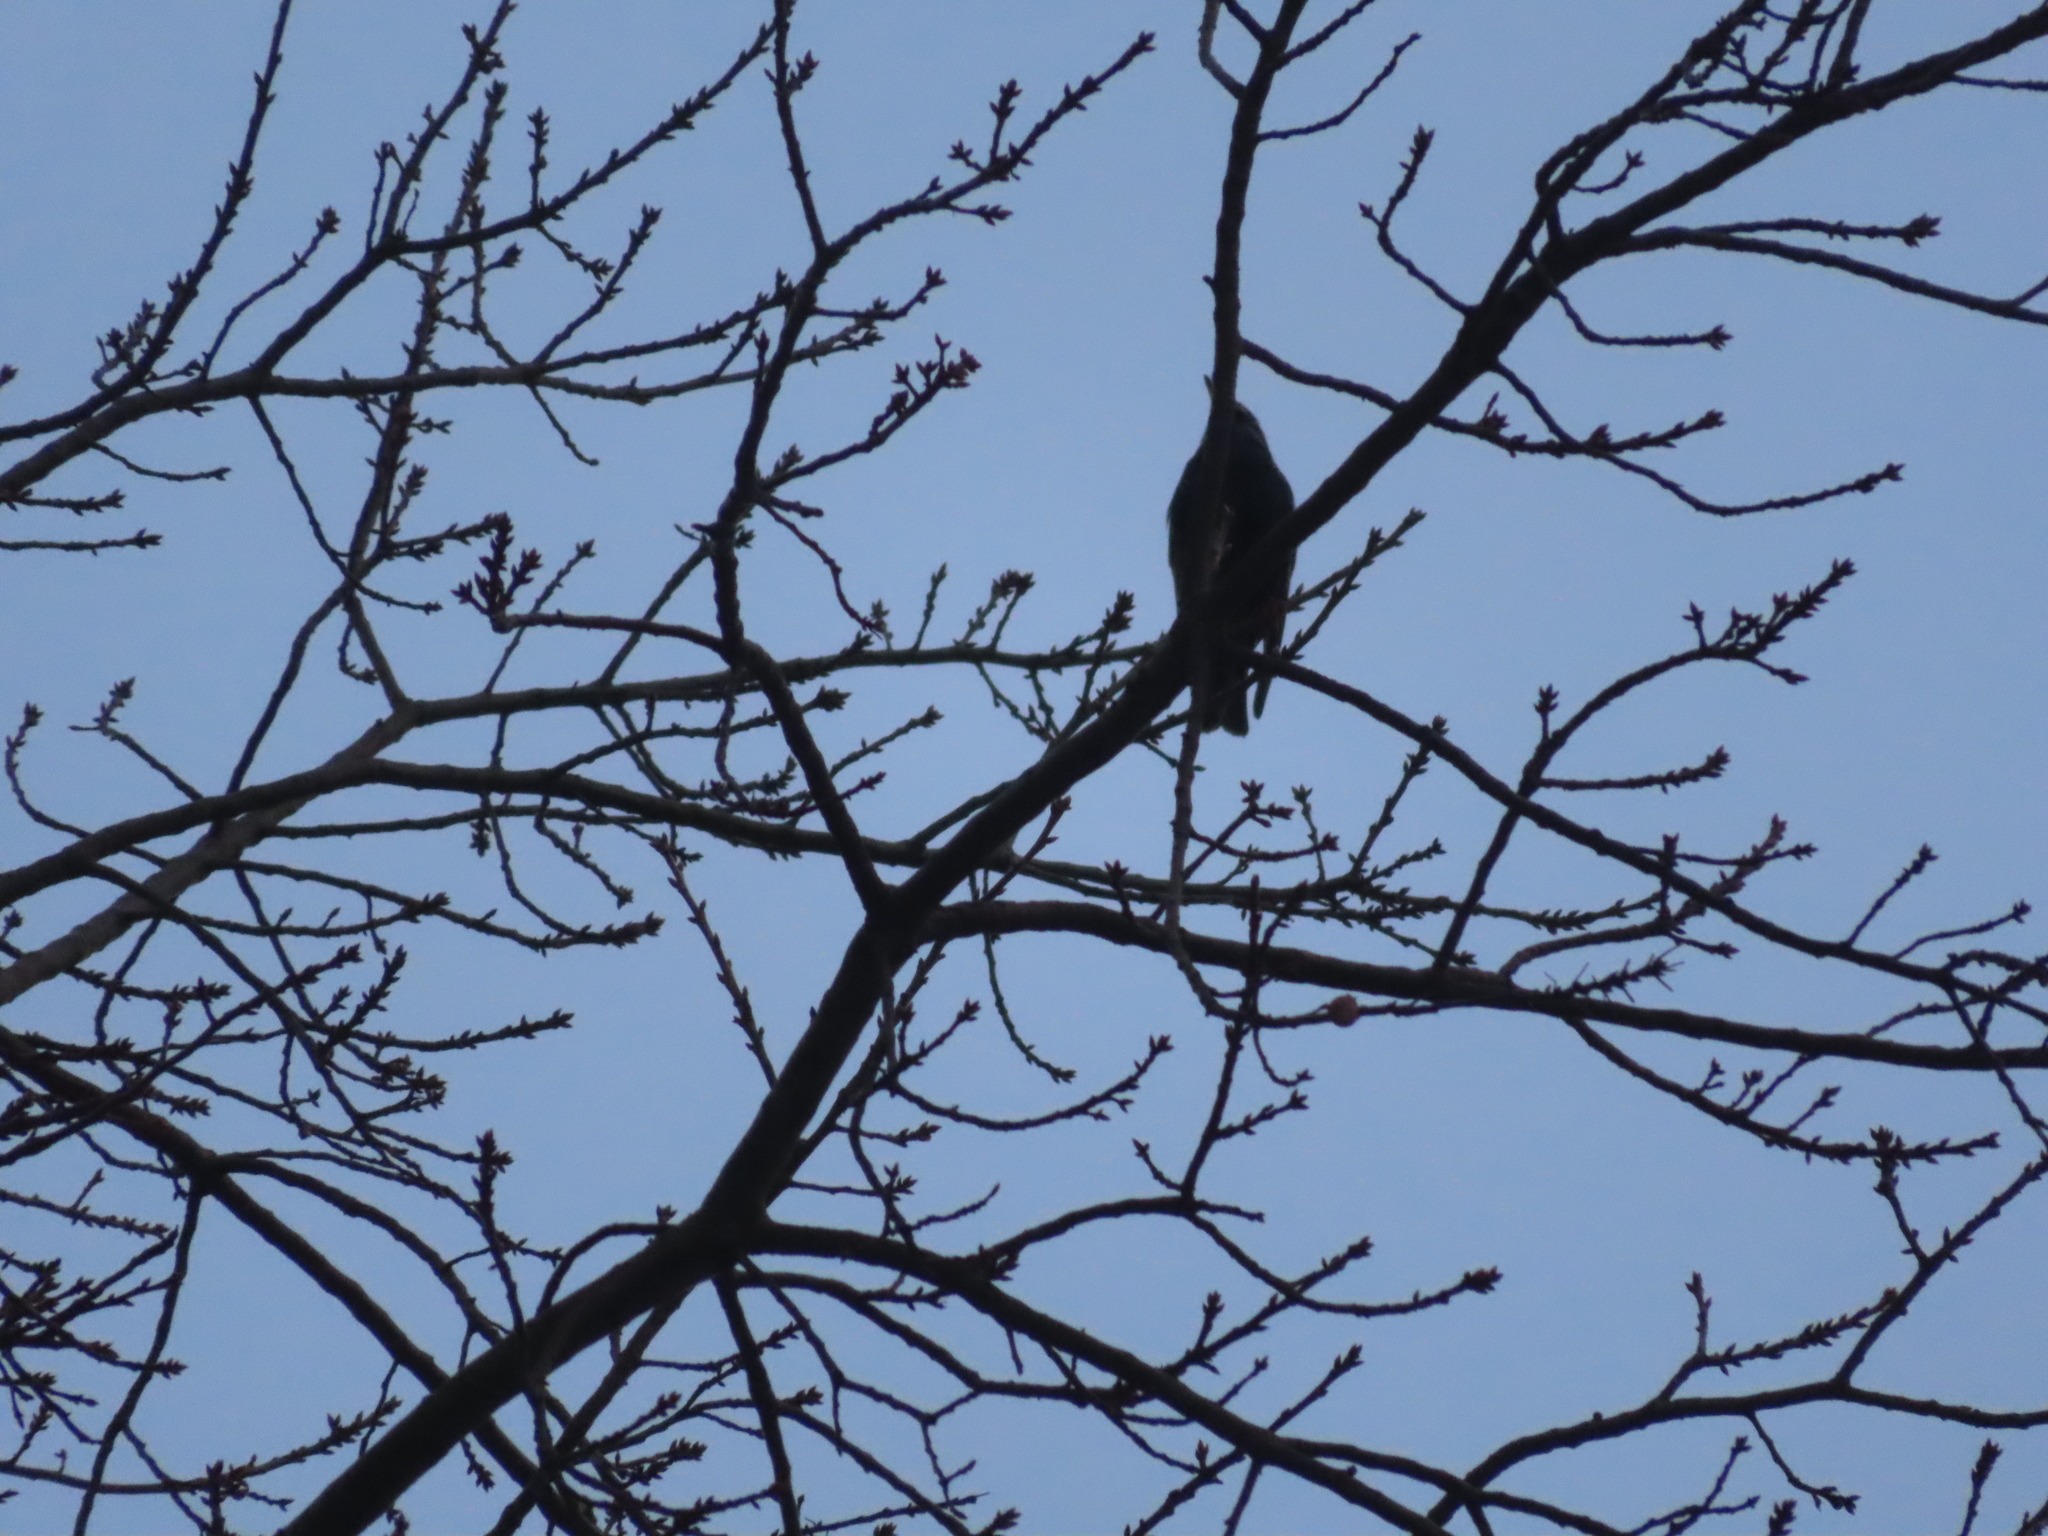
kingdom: Animalia
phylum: Chordata
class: Aves
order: Passeriformes
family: Sturnidae
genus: Sturnus
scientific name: Sturnus vulgaris
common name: Common starling
